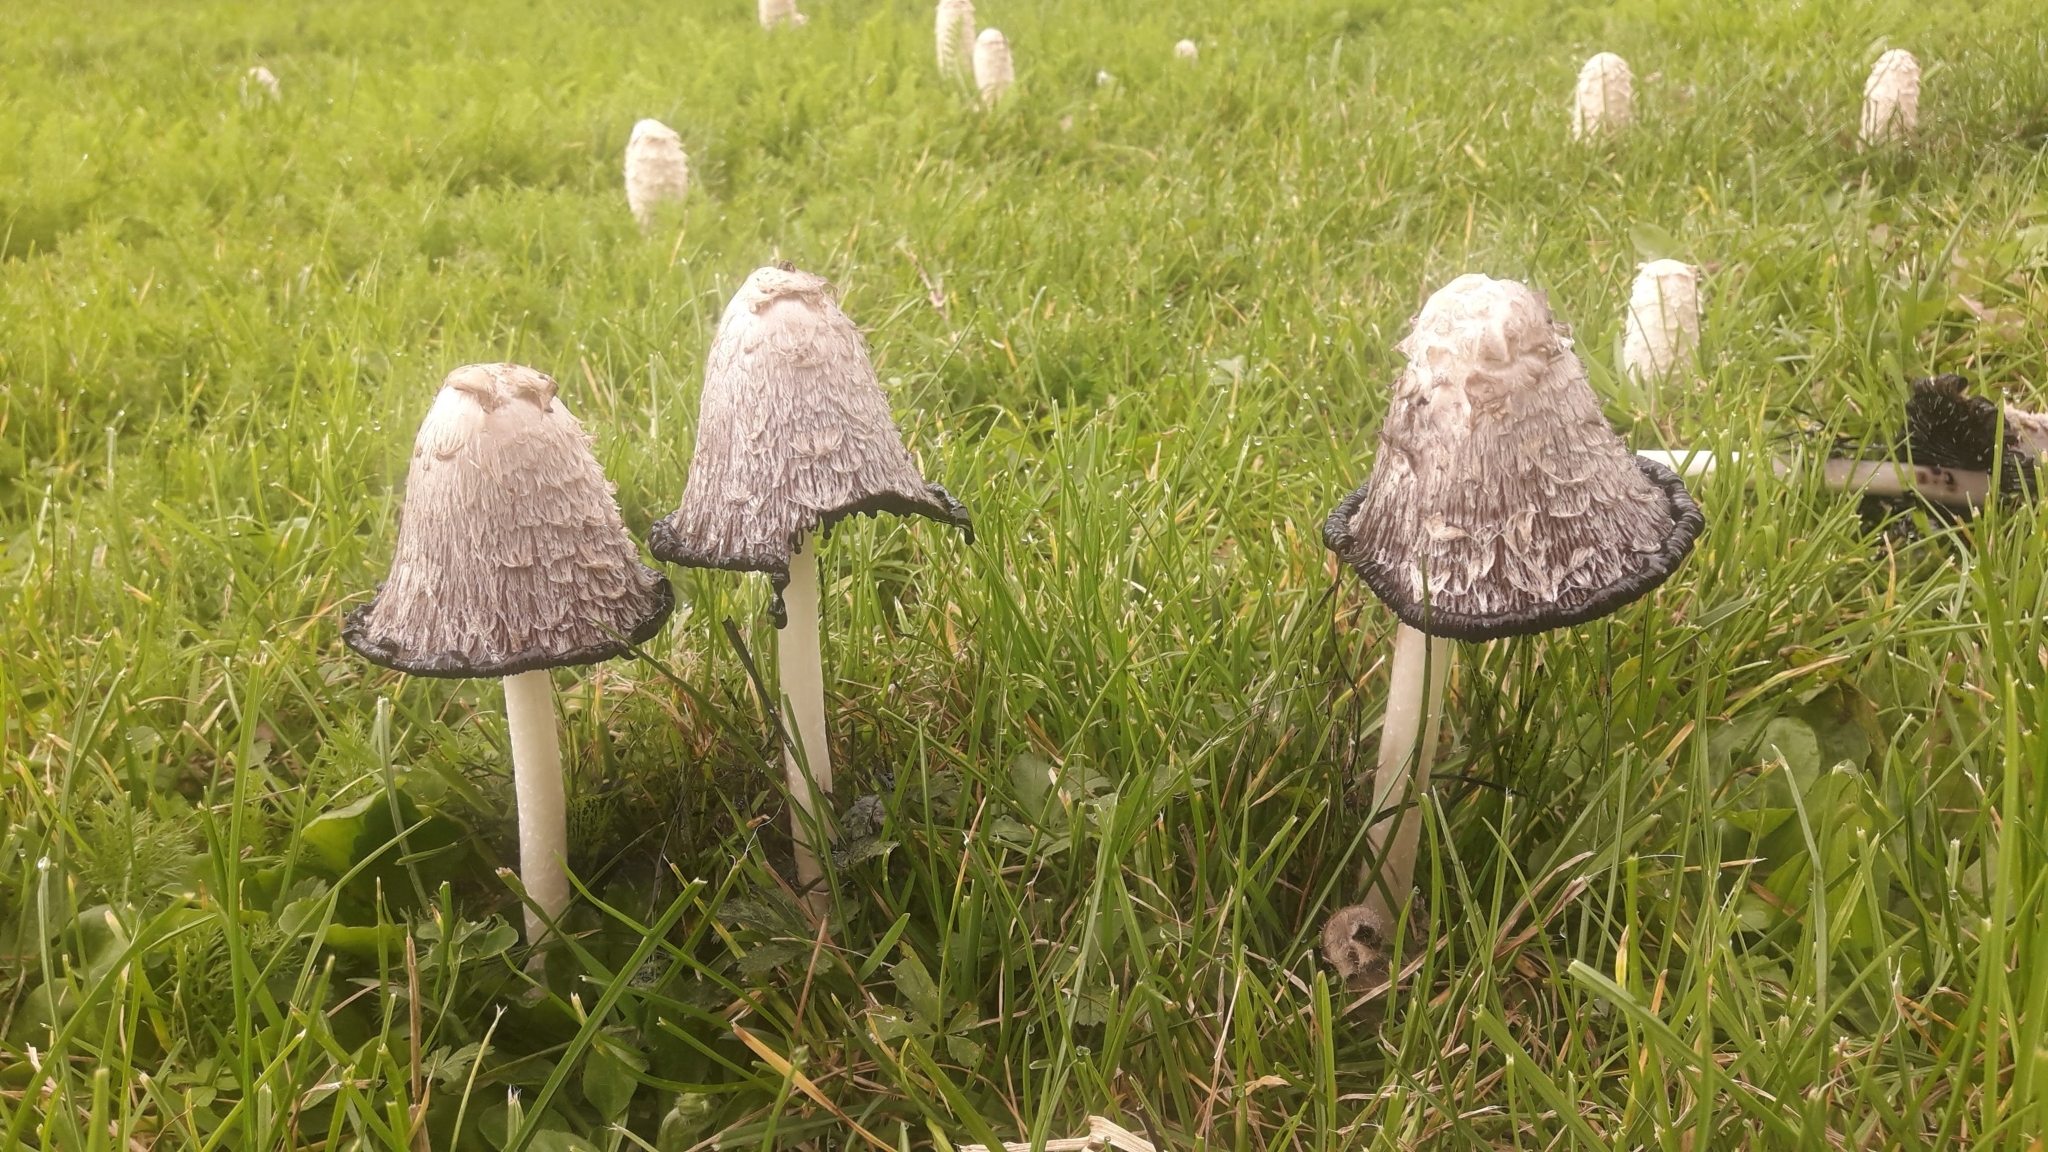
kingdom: Fungi
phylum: Basidiomycota
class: Agaricomycetes
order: Agaricales
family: Agaricaceae
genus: Coprinus
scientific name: Coprinus comatus
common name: Lawyer's wig
